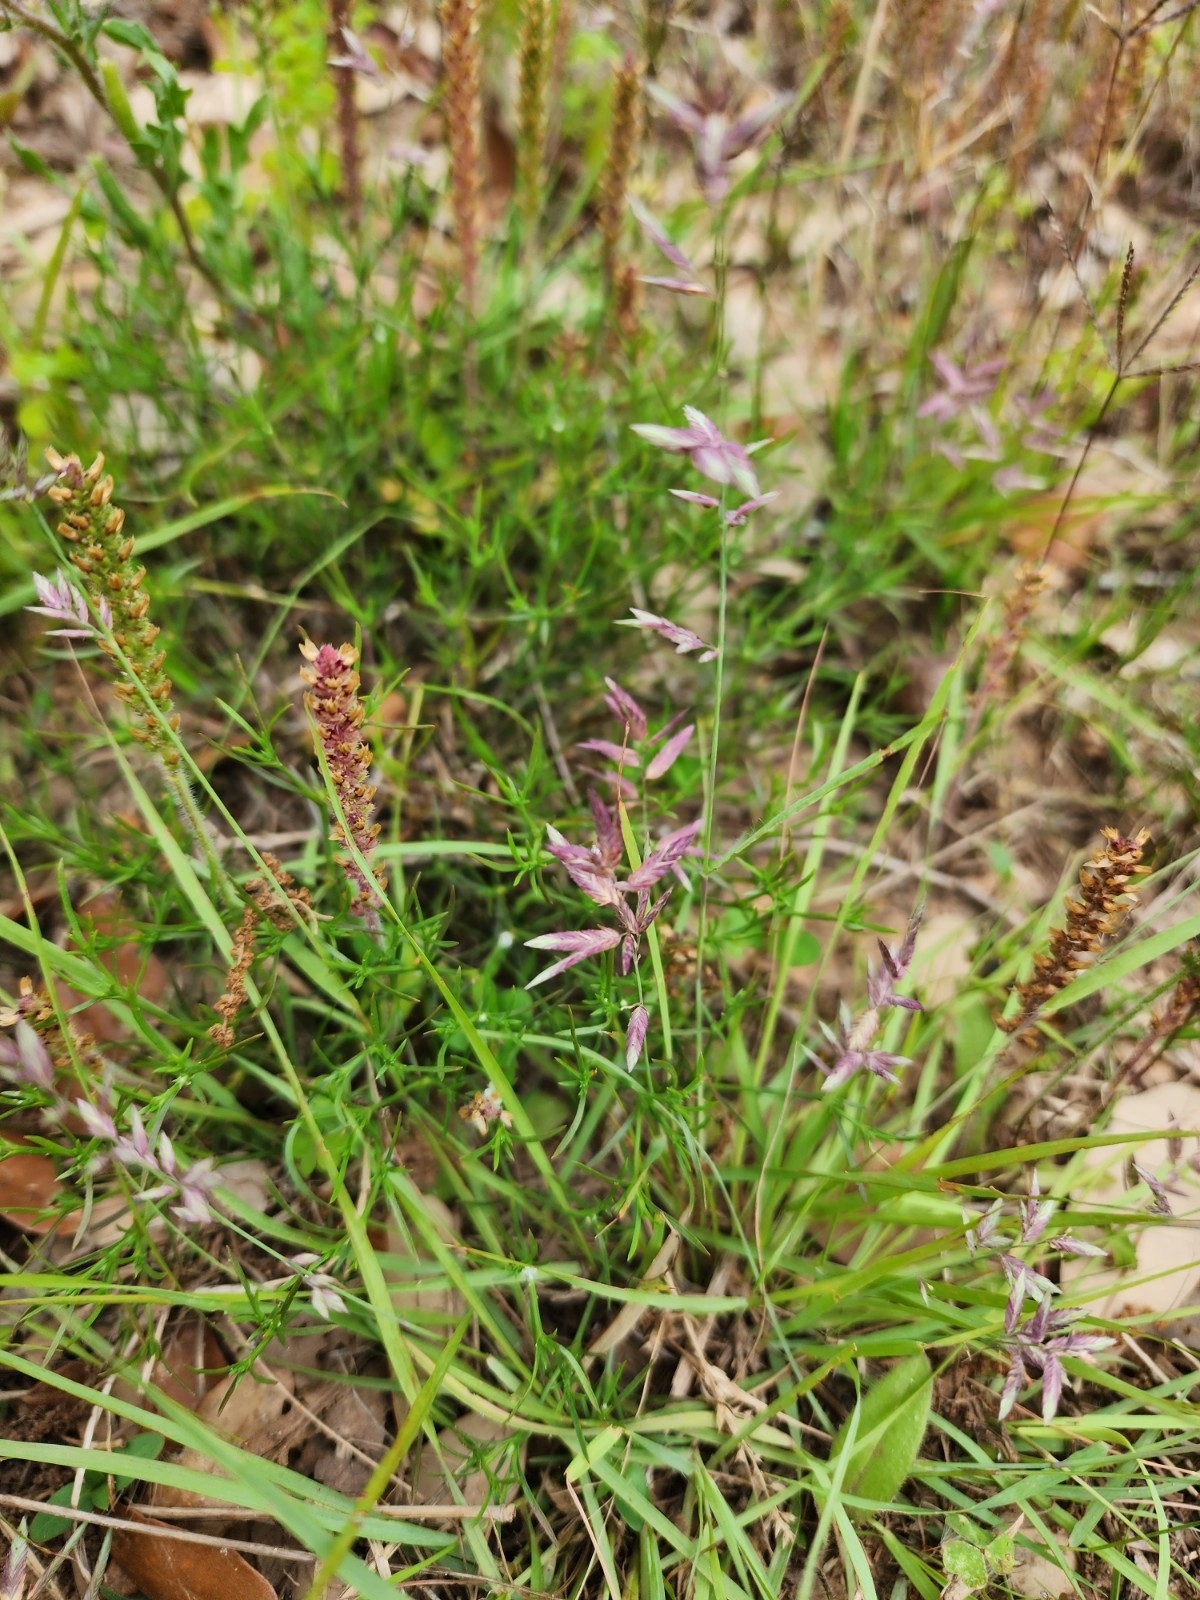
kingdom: Plantae
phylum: Tracheophyta
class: Liliopsida
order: Poales
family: Poaceae
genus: Eragrostis
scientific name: Eragrostis secundiflora
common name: Red love grass
